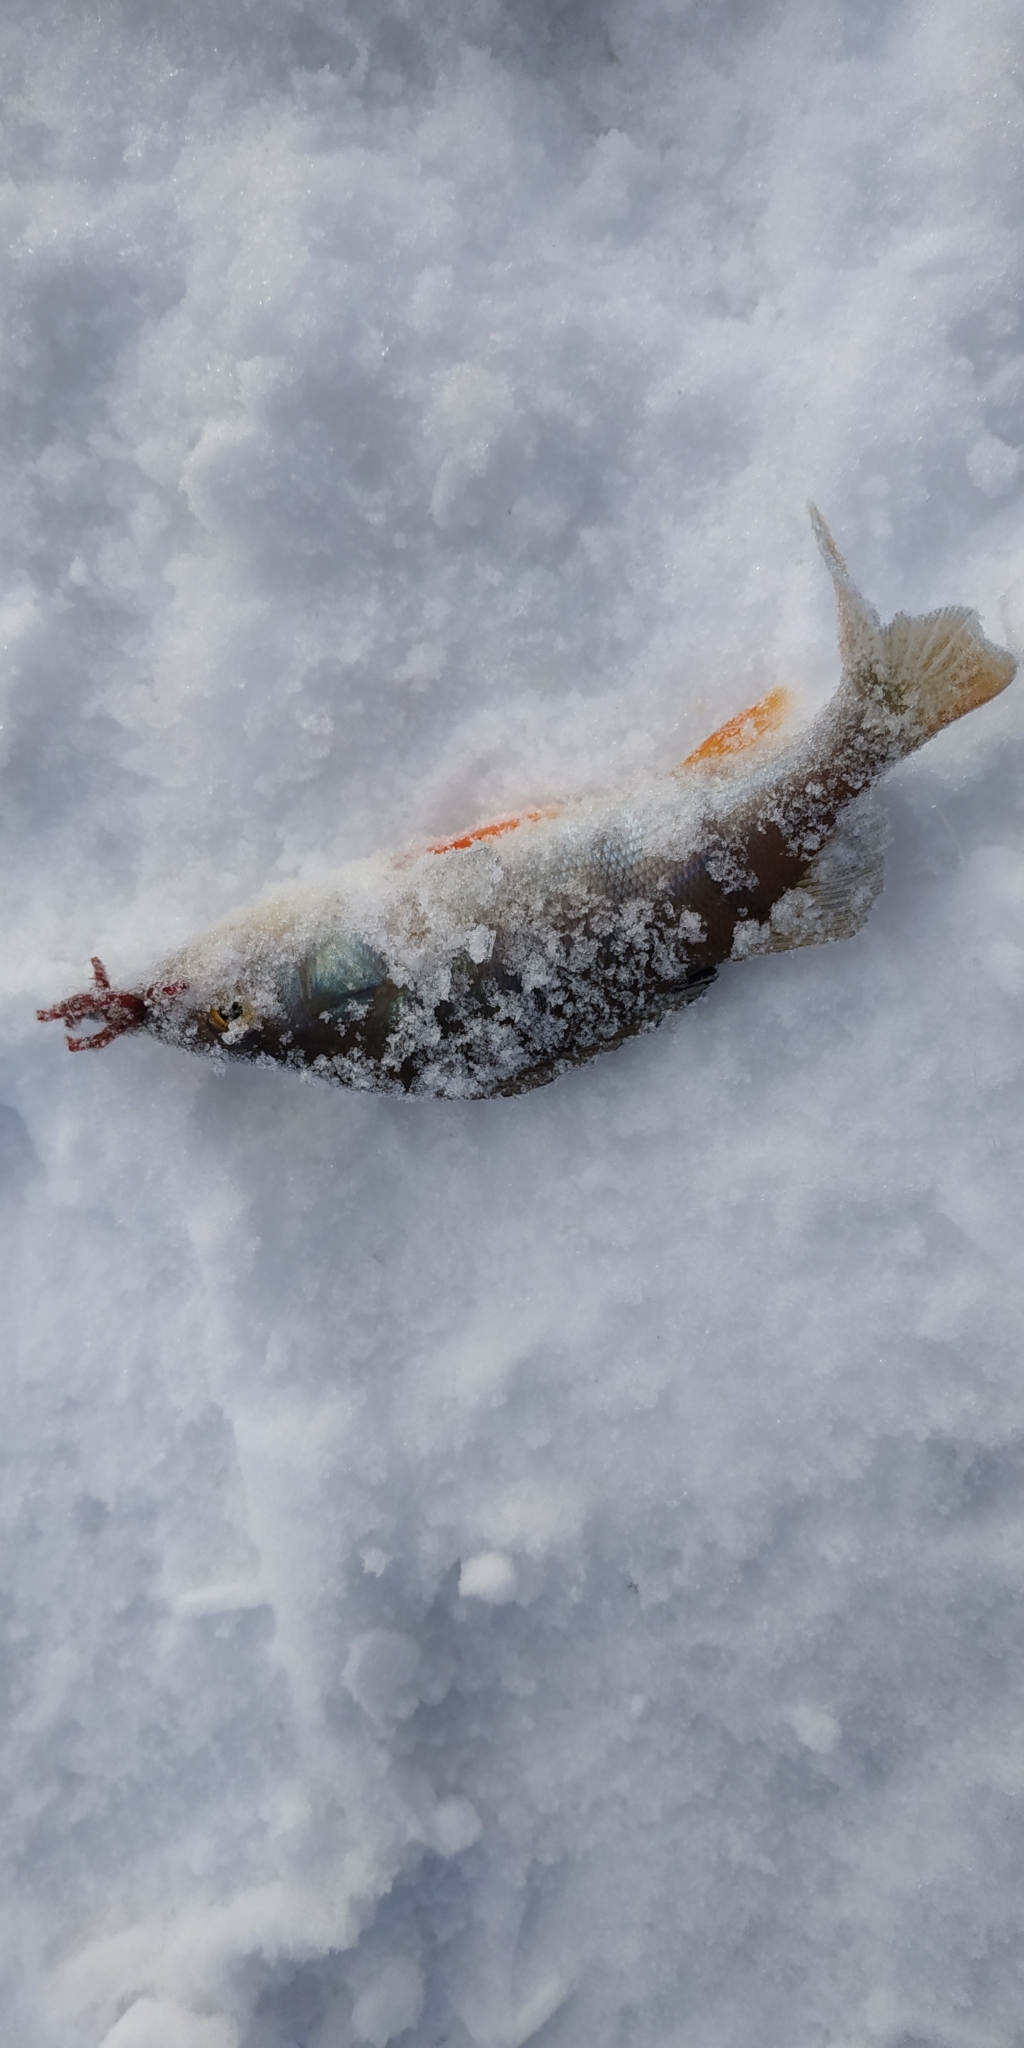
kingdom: Animalia
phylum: Chordata
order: Perciformes
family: Percidae
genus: Perca
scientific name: Perca fluviatilis
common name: Perch
